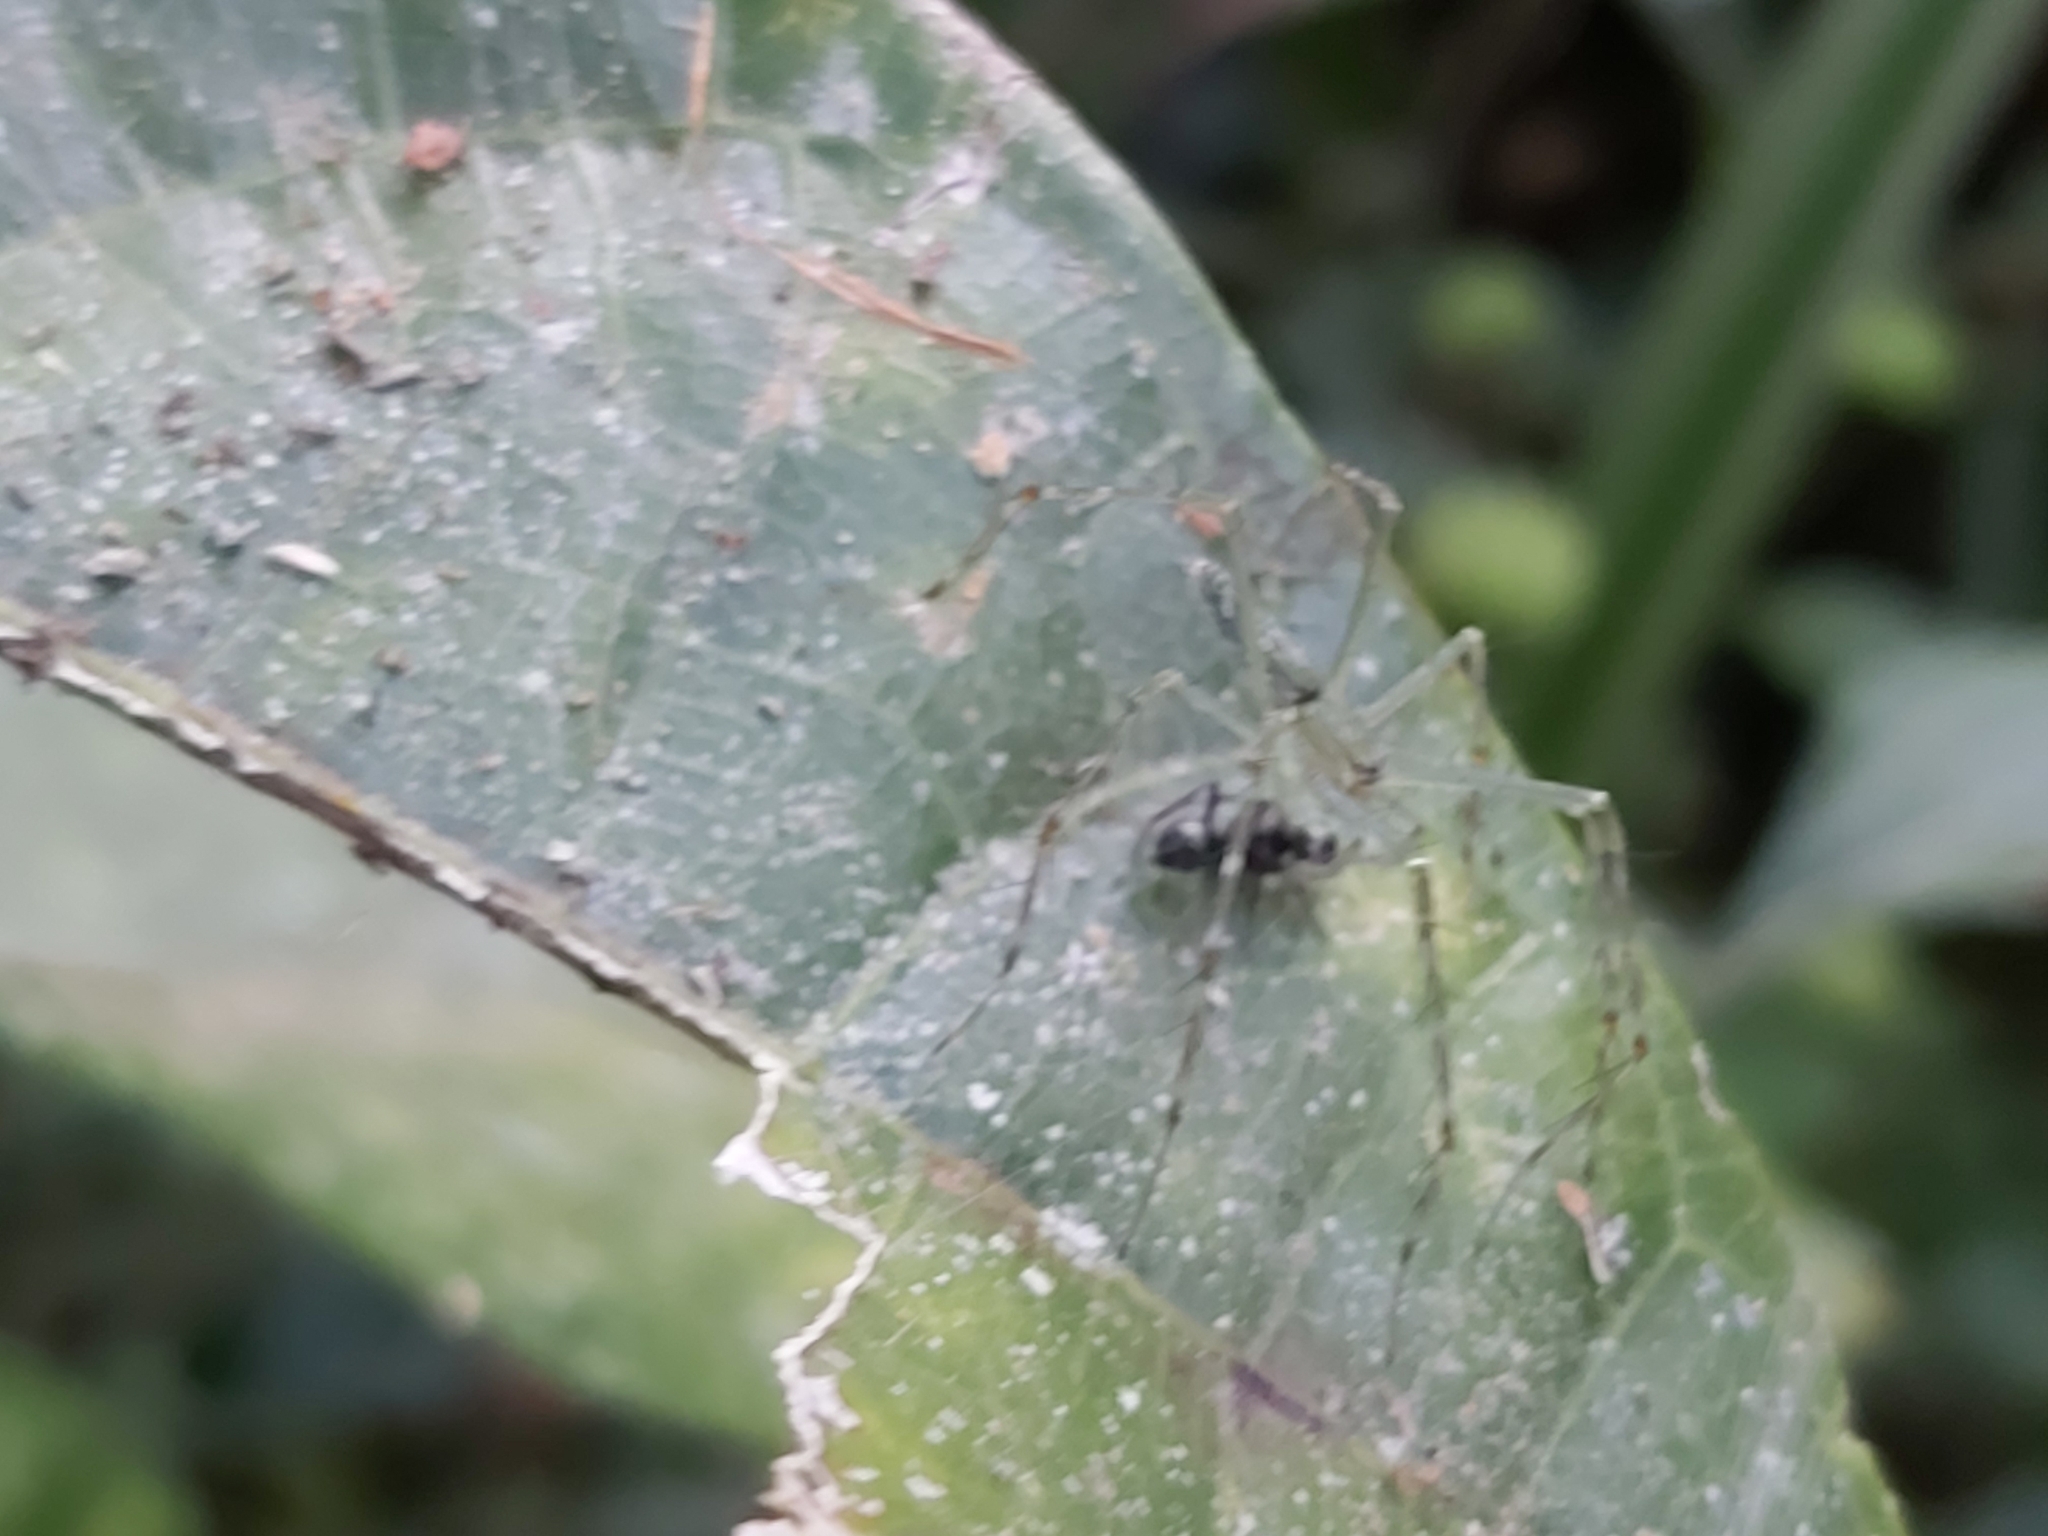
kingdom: Animalia
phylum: Arthropoda
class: Arachnida
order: Araneae
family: Pisauridae
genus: Hygropoda
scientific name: Hygropoda lineata
